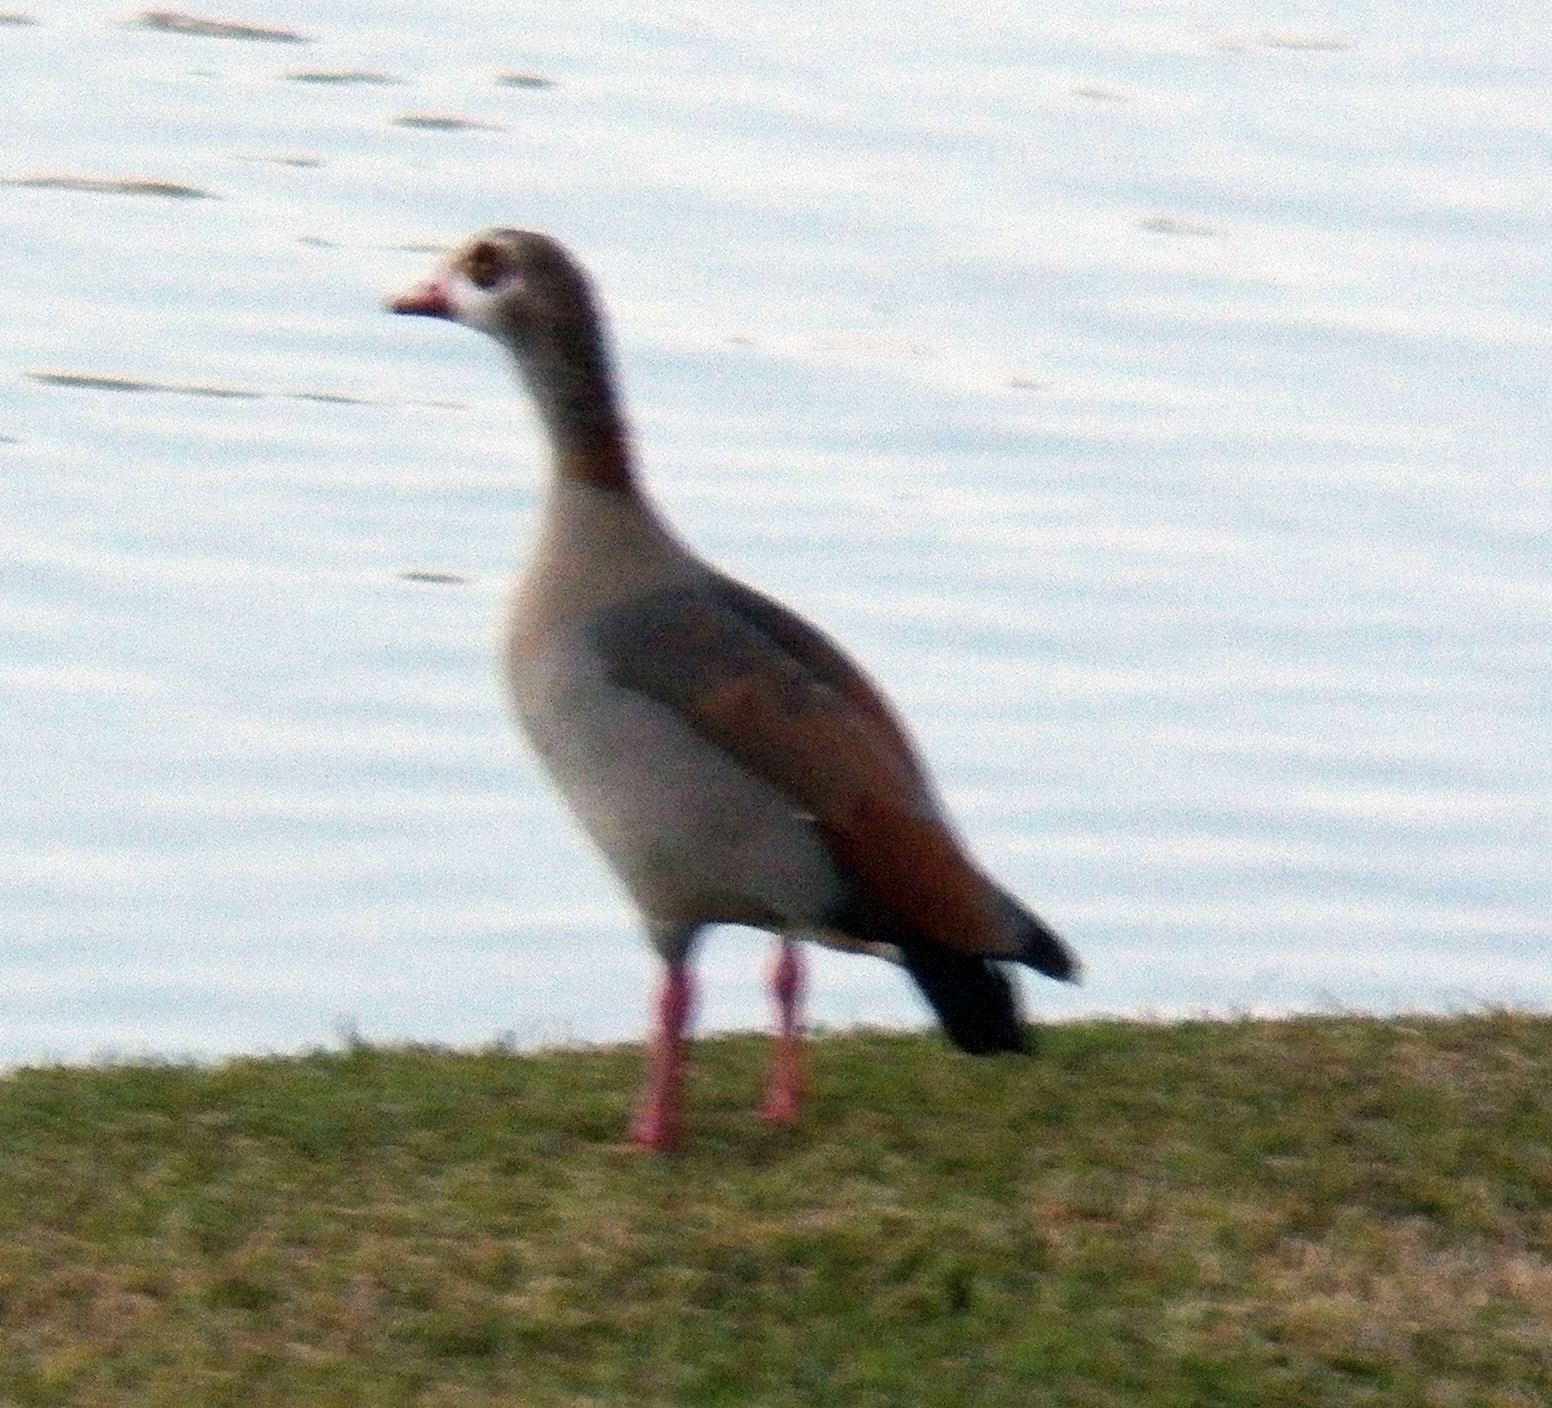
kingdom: Animalia
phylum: Chordata
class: Aves
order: Anseriformes
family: Anatidae
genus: Alopochen
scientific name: Alopochen aegyptiaca
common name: Egyptian goose
